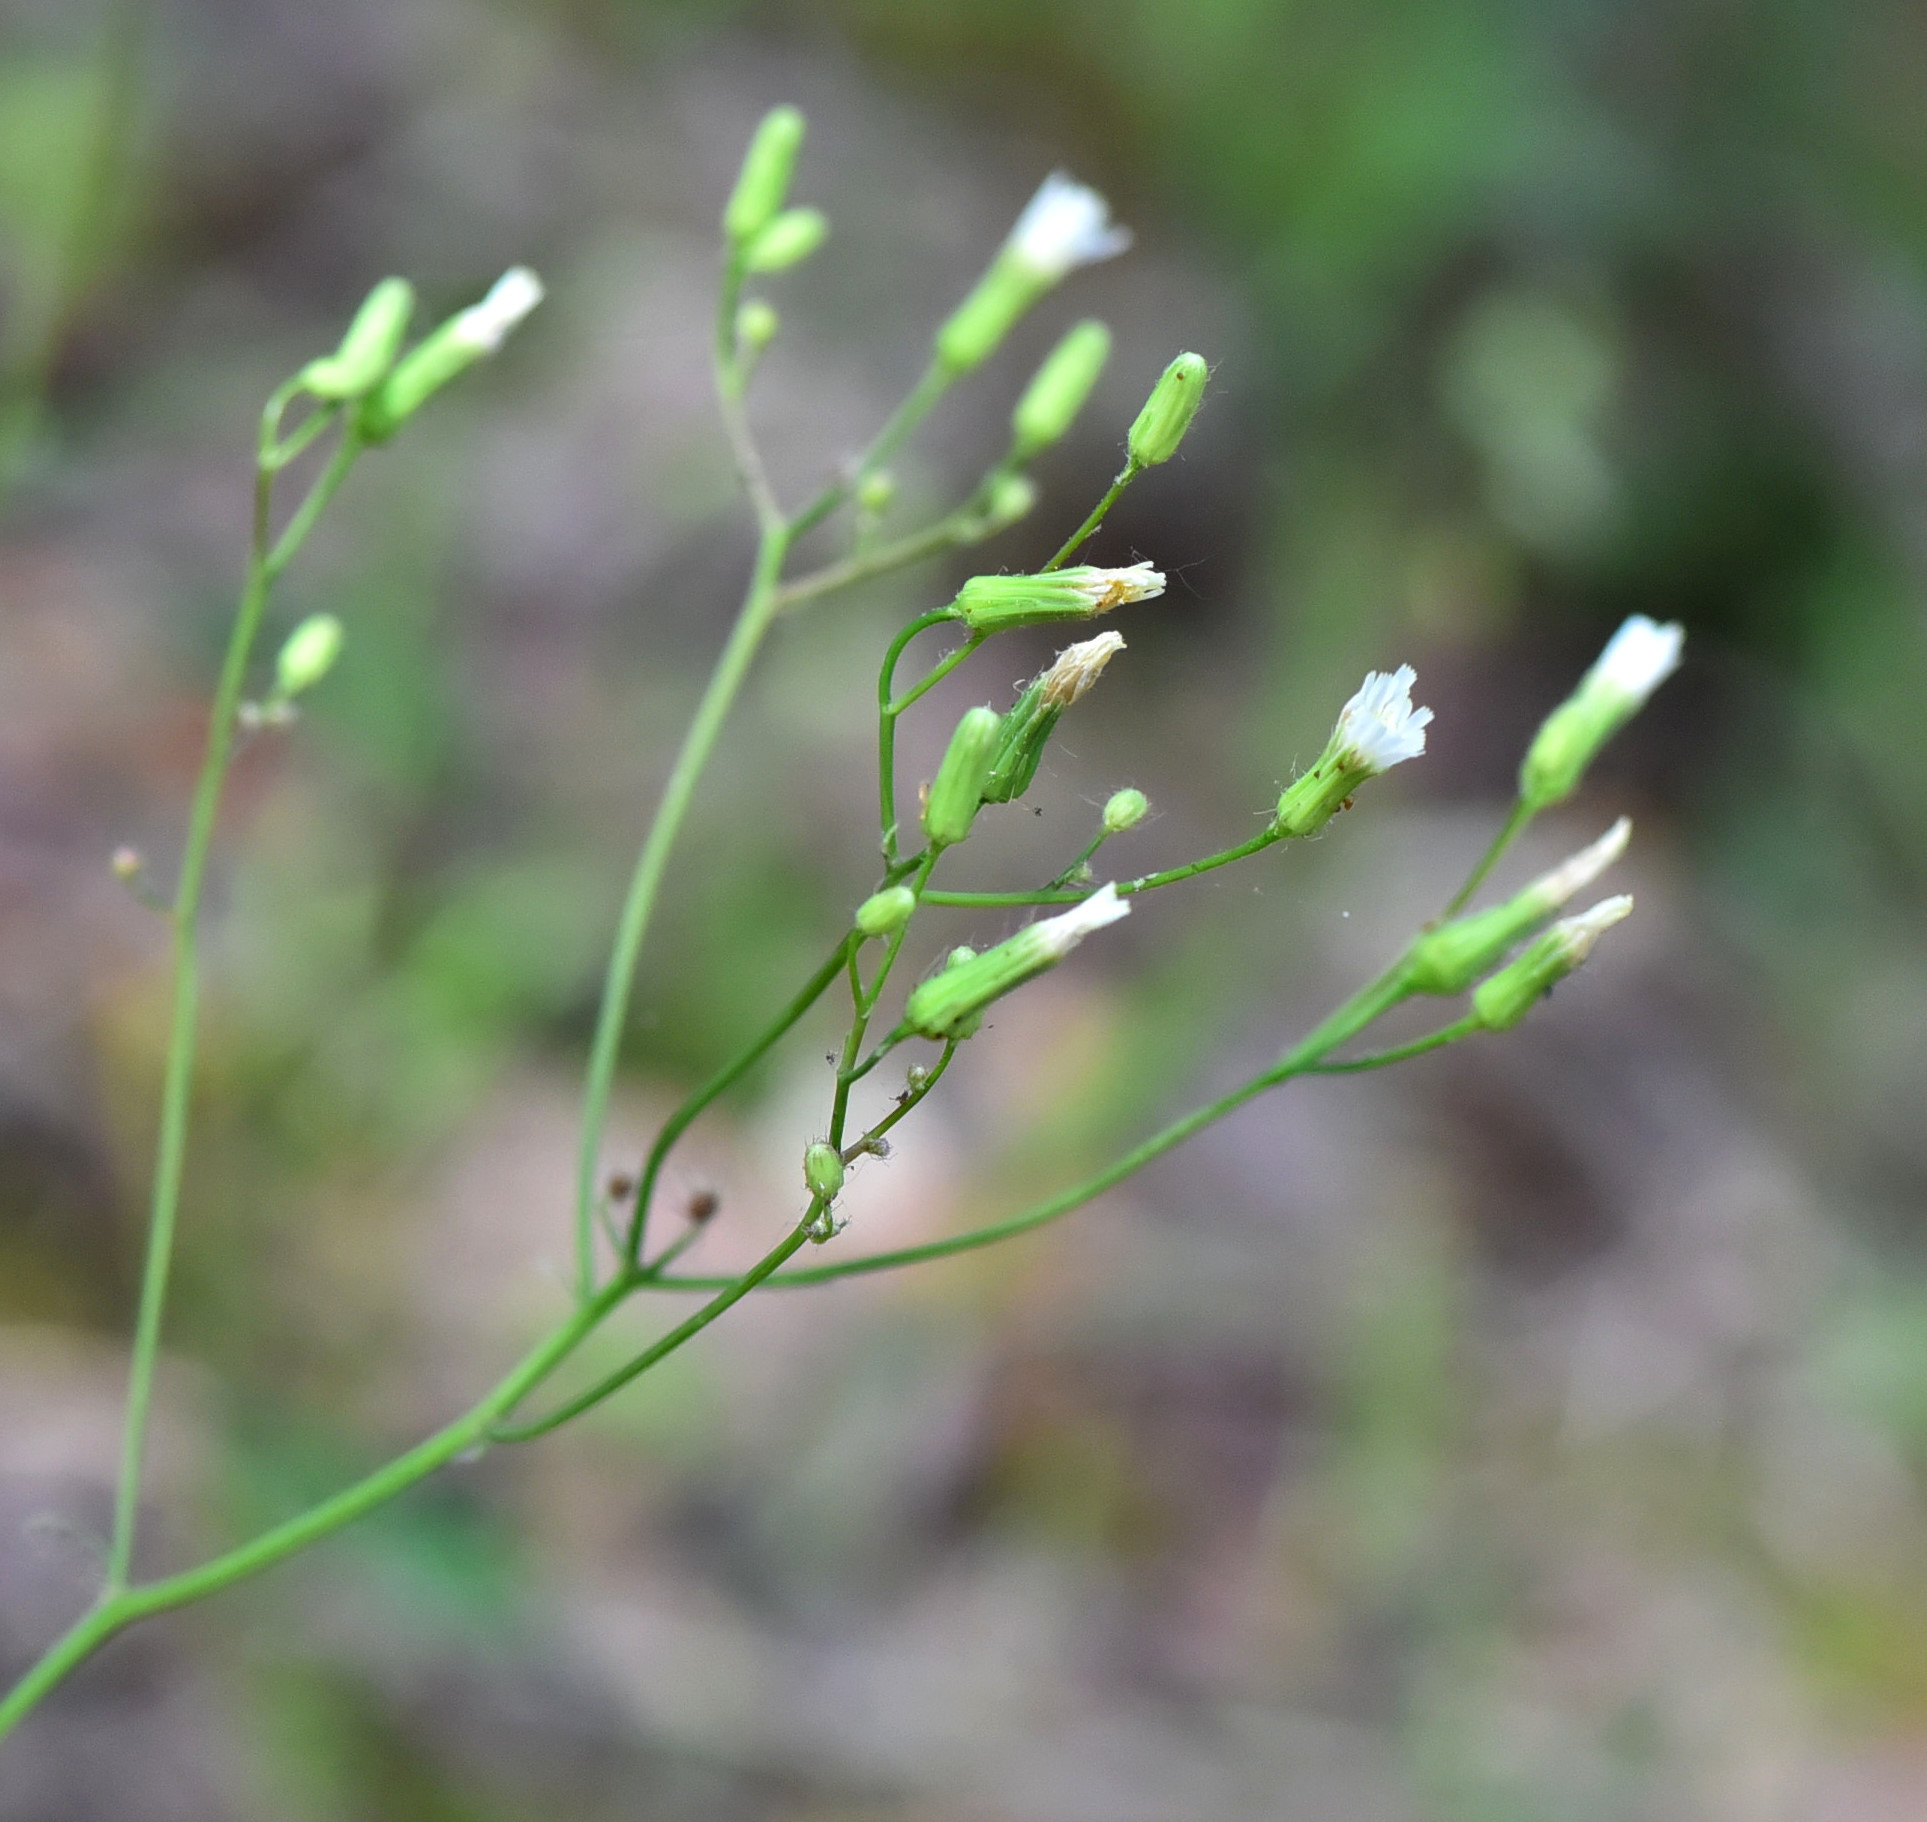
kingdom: Plantae
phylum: Tracheophyta
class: Magnoliopsida
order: Asterales
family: Asteraceae
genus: Hieracium
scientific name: Hieracium albiflorum
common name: White hawkweed
